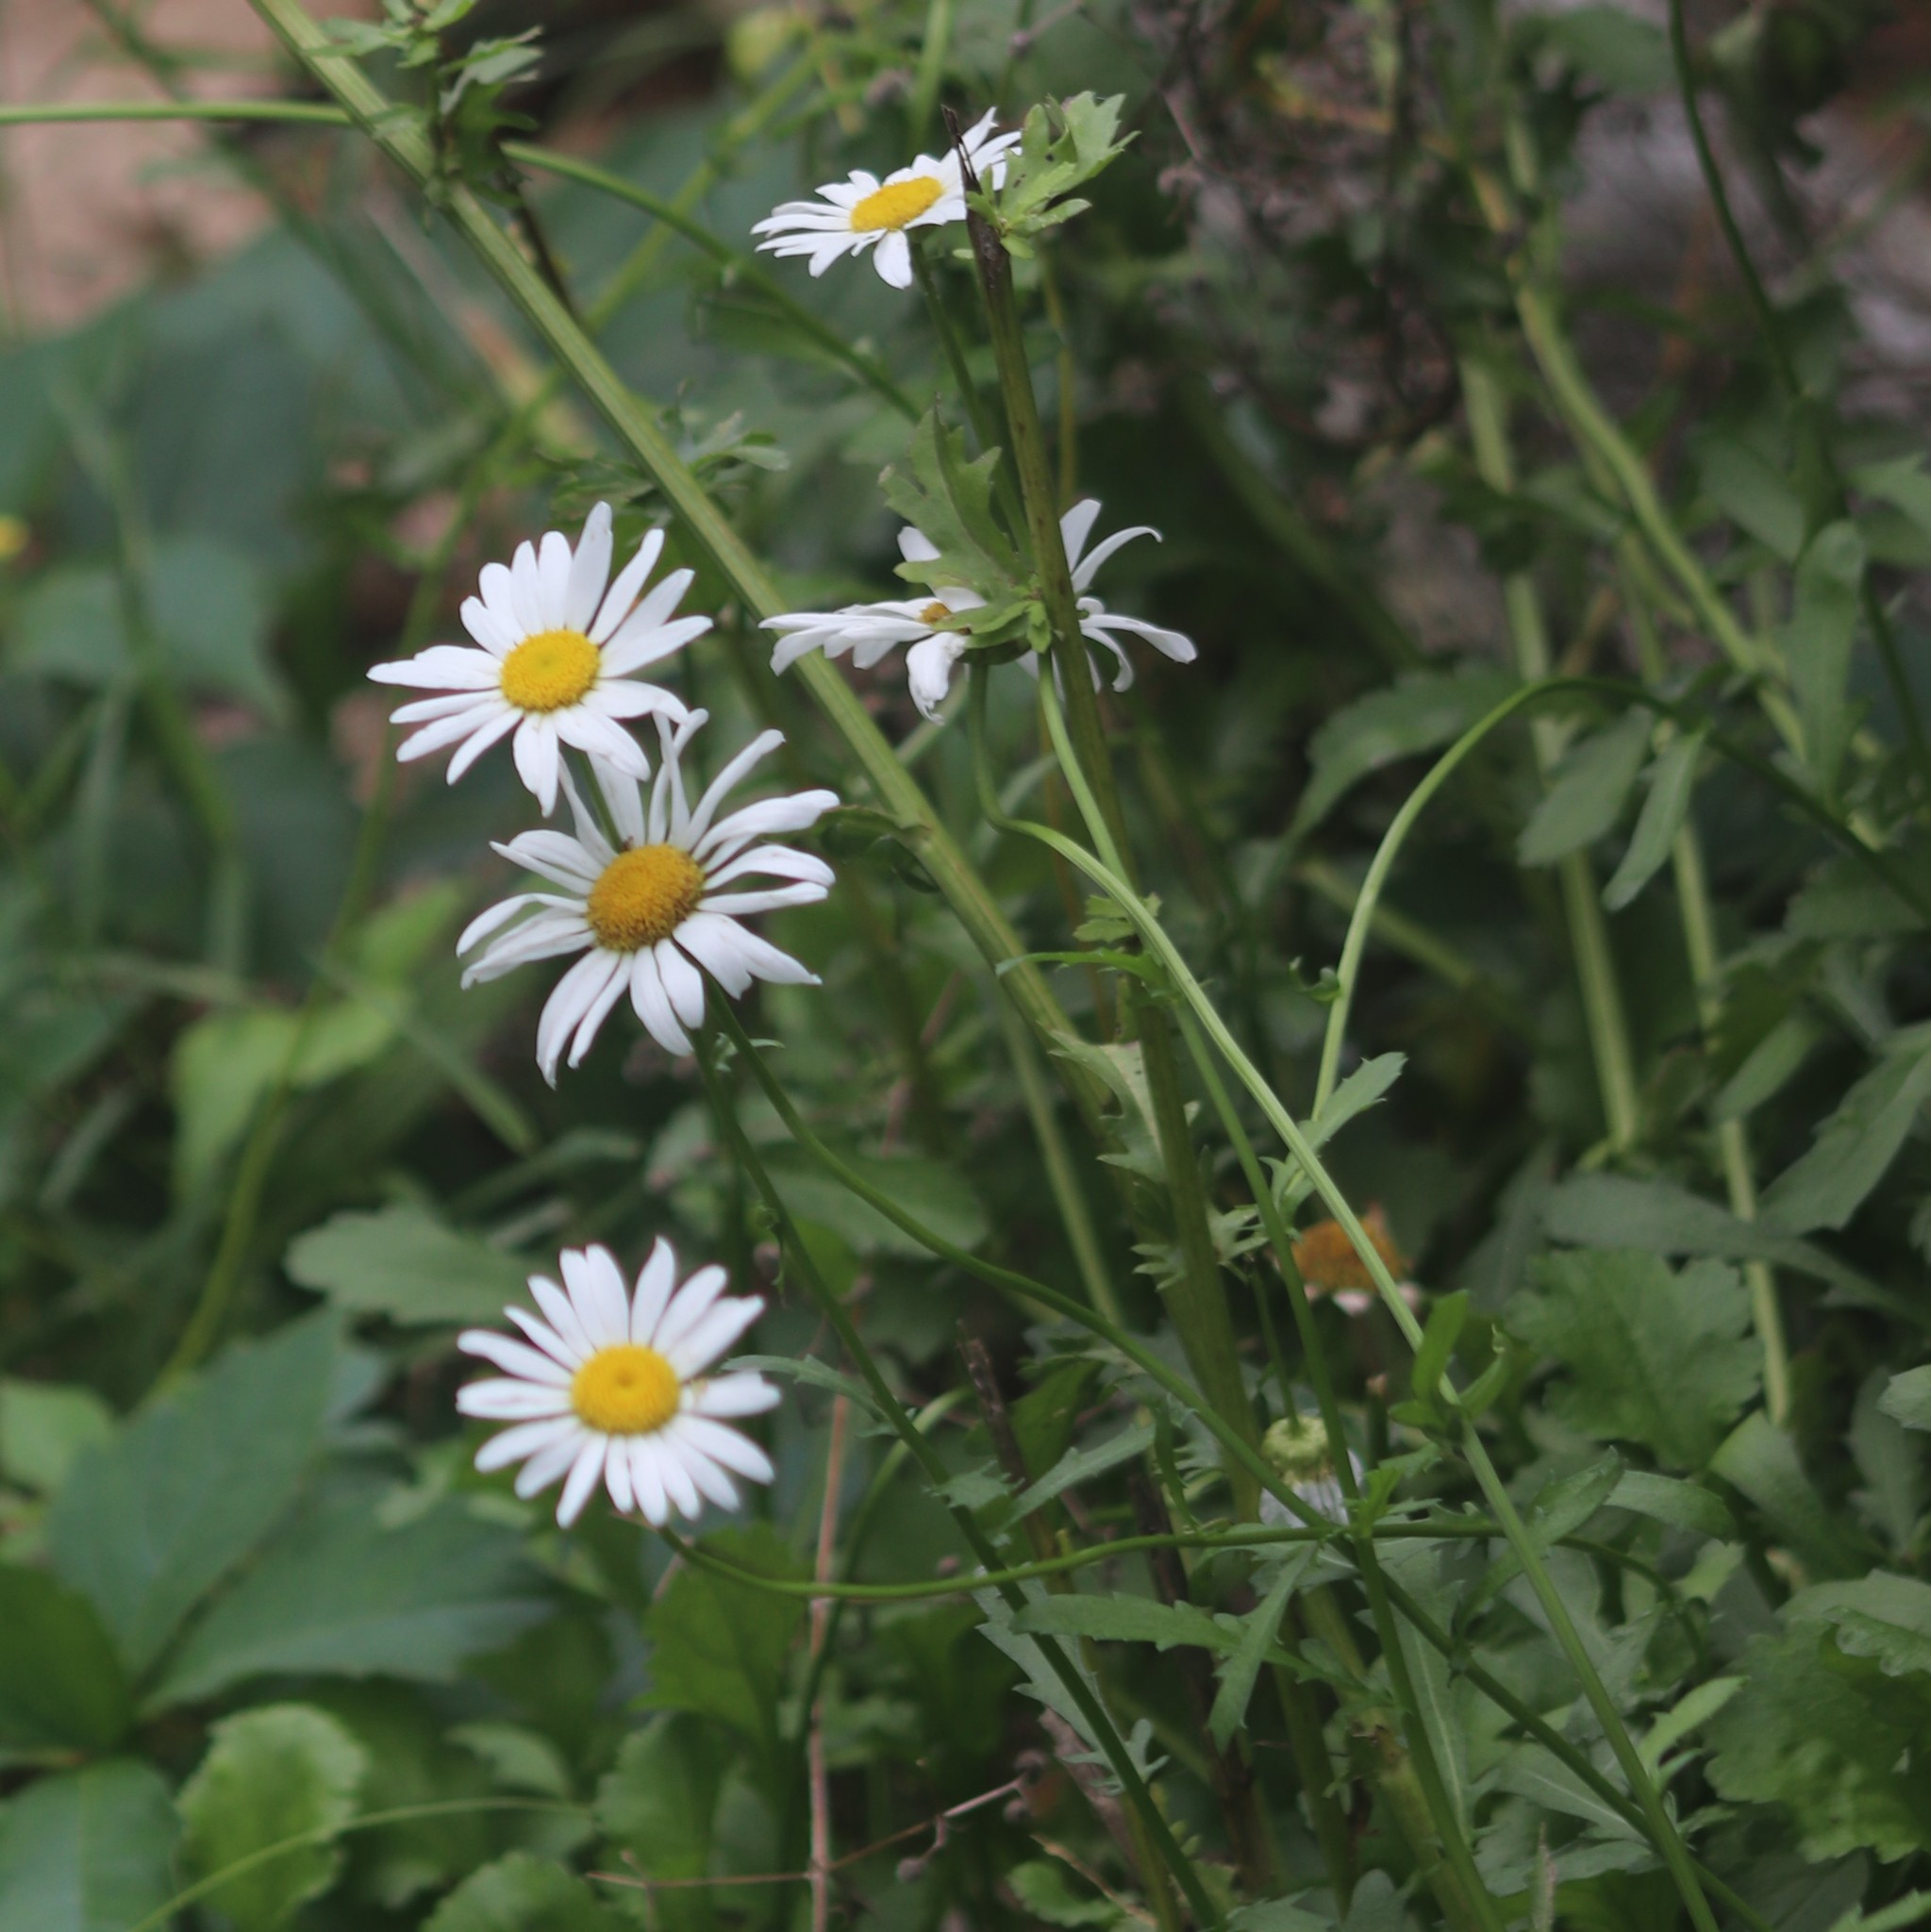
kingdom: Plantae
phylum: Tracheophyta
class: Magnoliopsida
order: Asterales
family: Asteraceae
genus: Leucanthemum
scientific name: Leucanthemum vulgare
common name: Oxeye daisy
